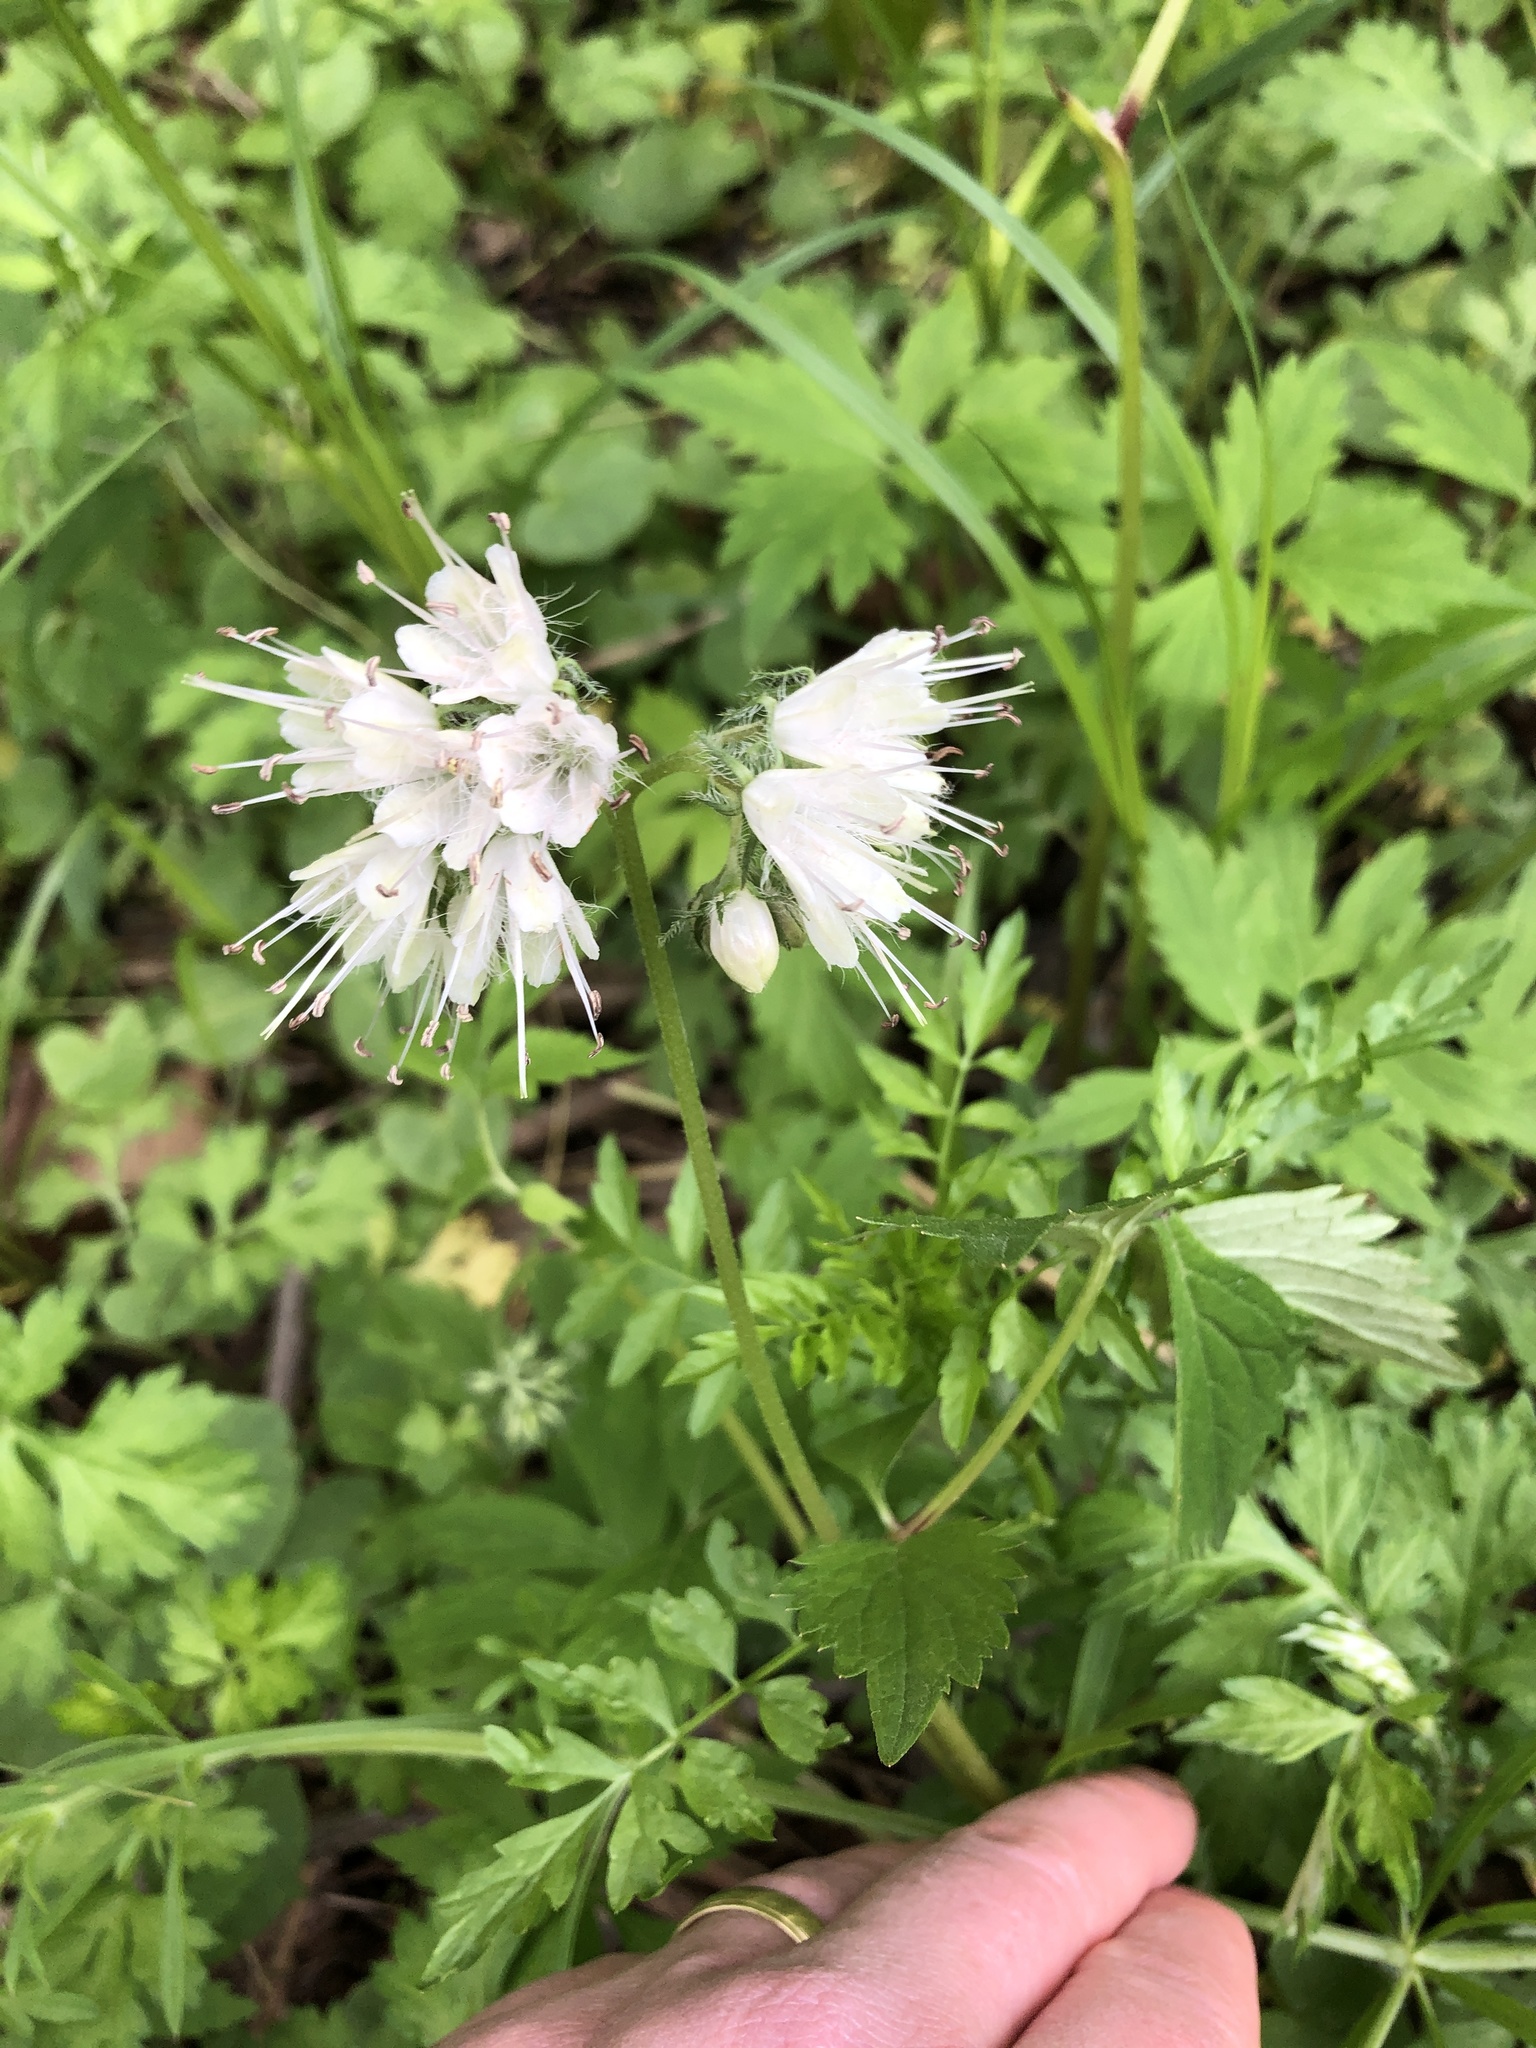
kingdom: Plantae
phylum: Tracheophyta
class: Magnoliopsida
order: Boraginales
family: Hydrophyllaceae
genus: Hydrophyllum
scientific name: Hydrophyllum virginianum
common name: Virginia waterleaf
